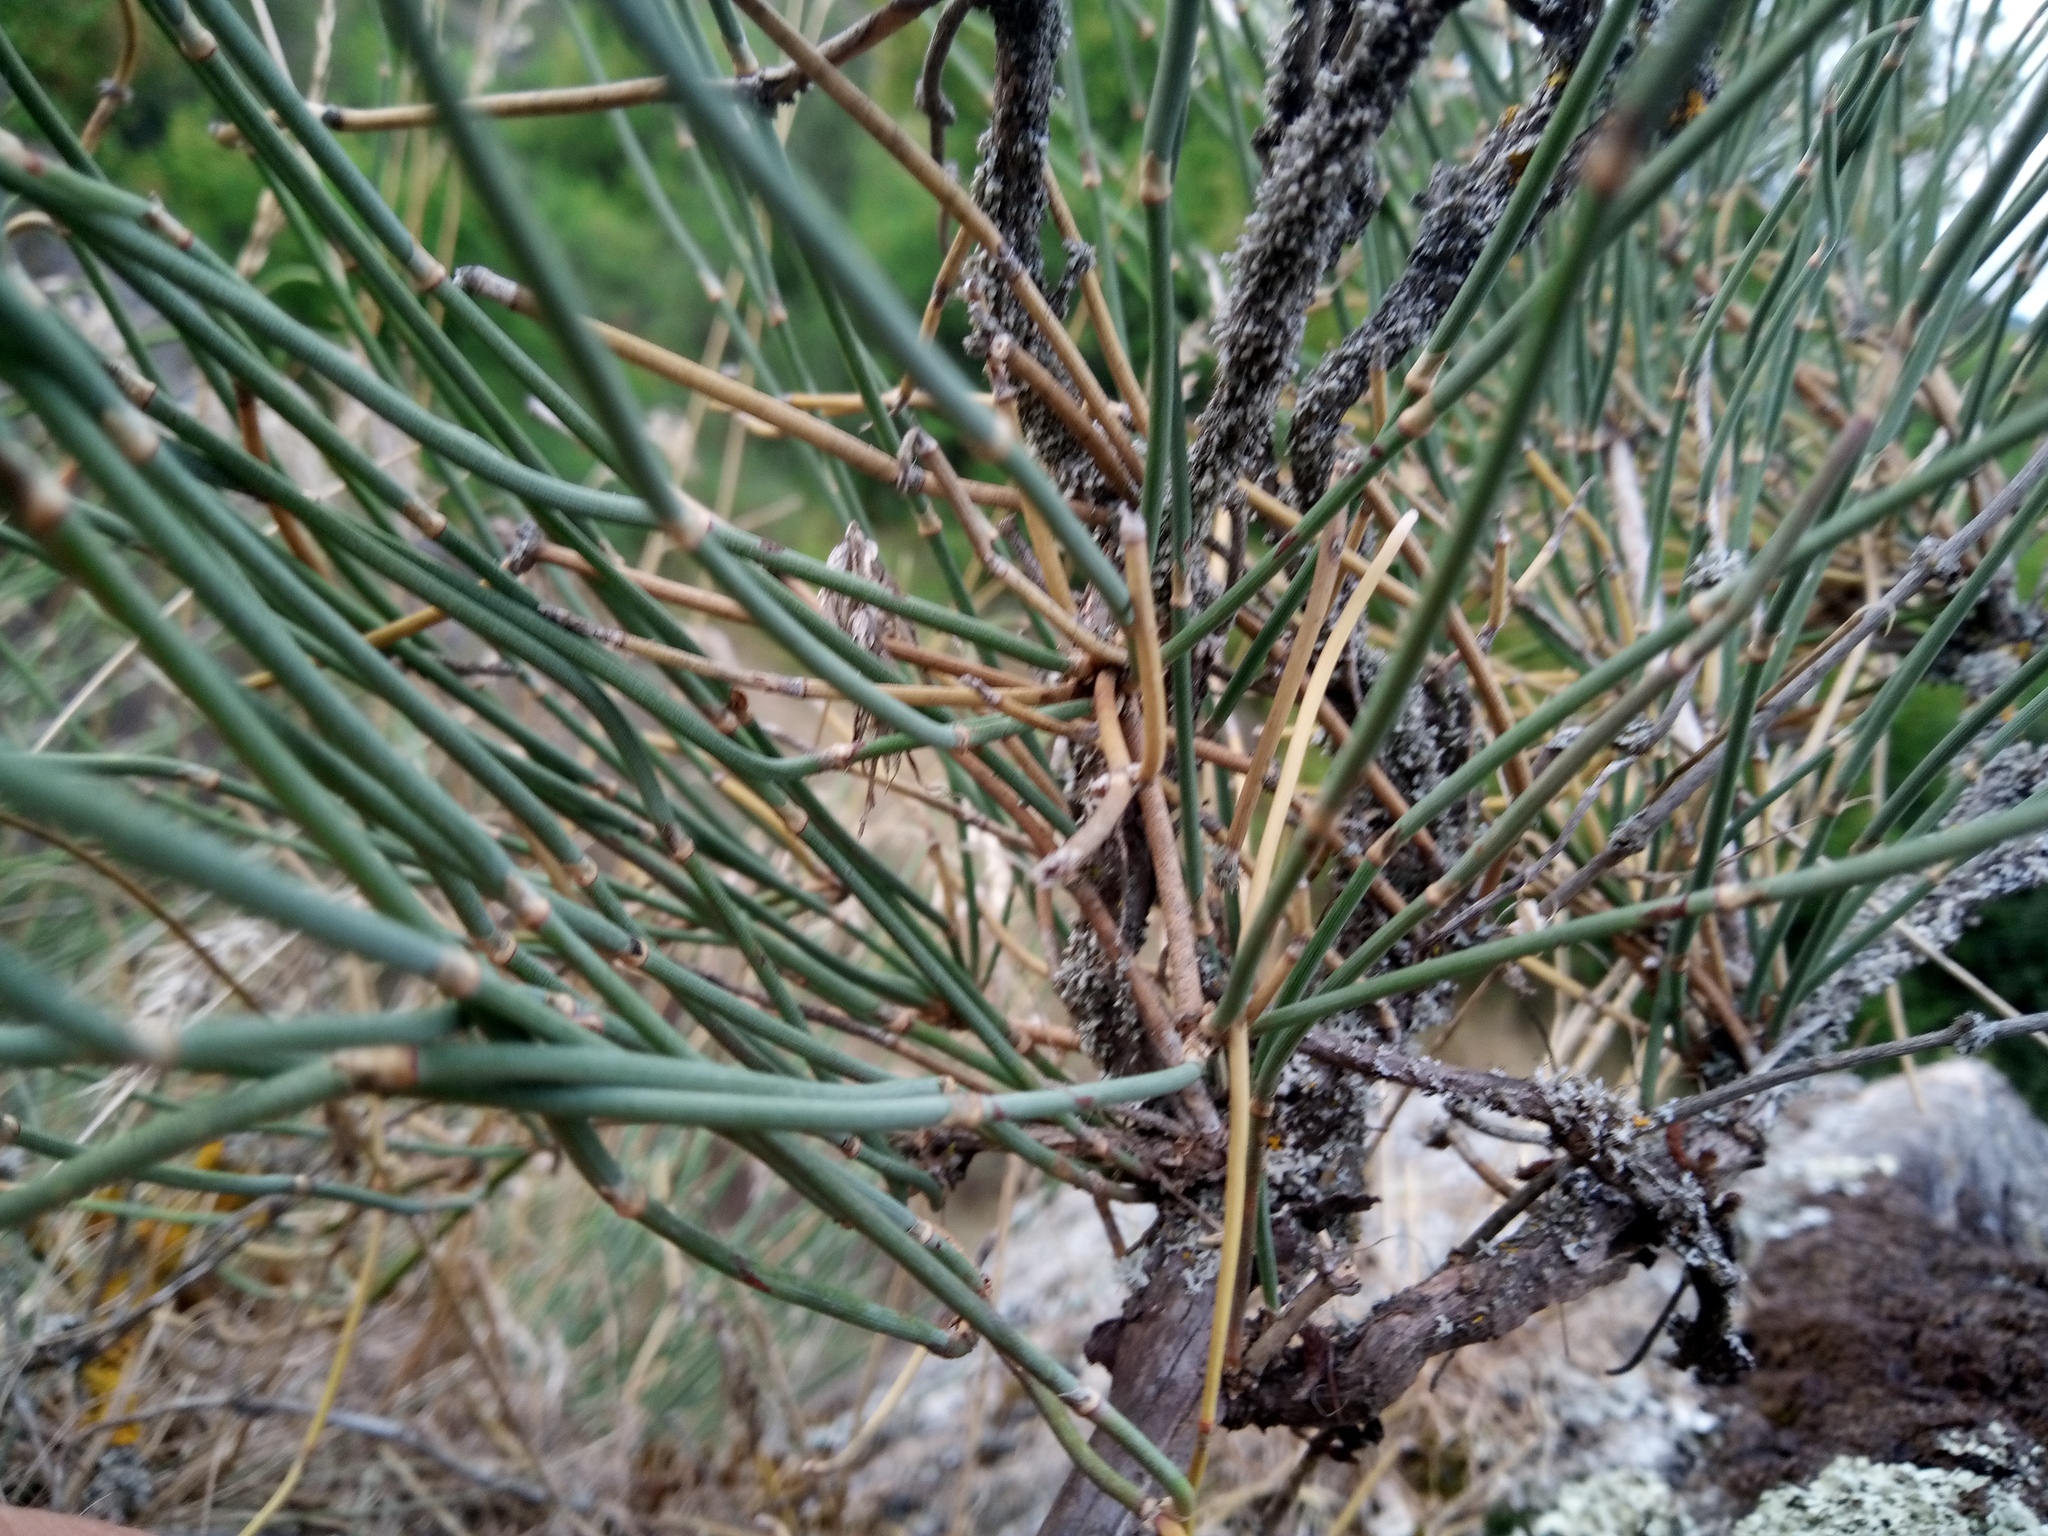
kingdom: Plantae
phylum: Tracheophyta
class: Gnetopsida
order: Ephedrales
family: Ephedraceae
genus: Ephedra
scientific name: Ephedra distachya
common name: Sea grape
